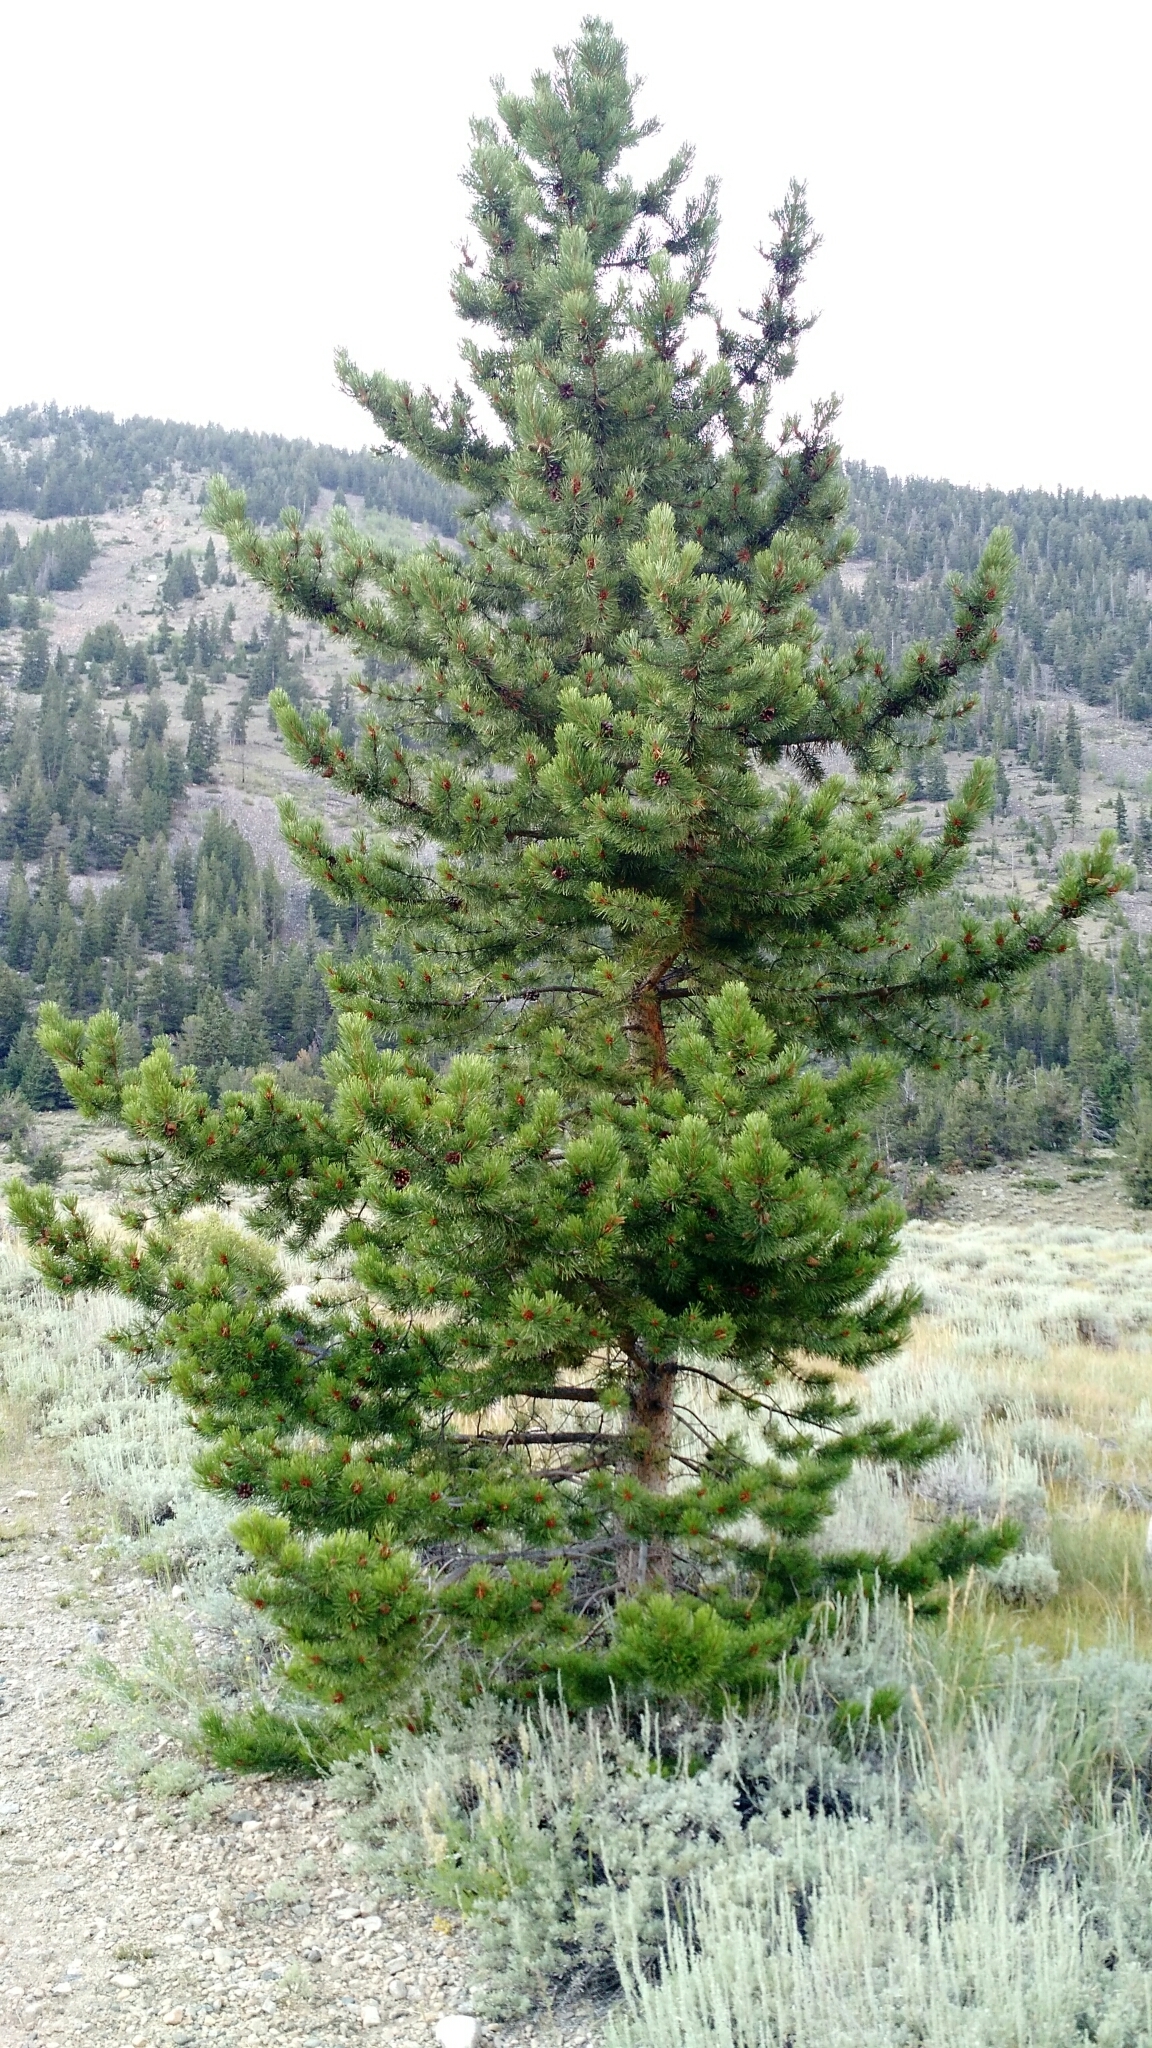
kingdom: Plantae
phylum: Tracheophyta
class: Pinopsida
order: Pinales
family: Pinaceae
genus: Pinus
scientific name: Pinus contorta
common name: Lodgepole pine
